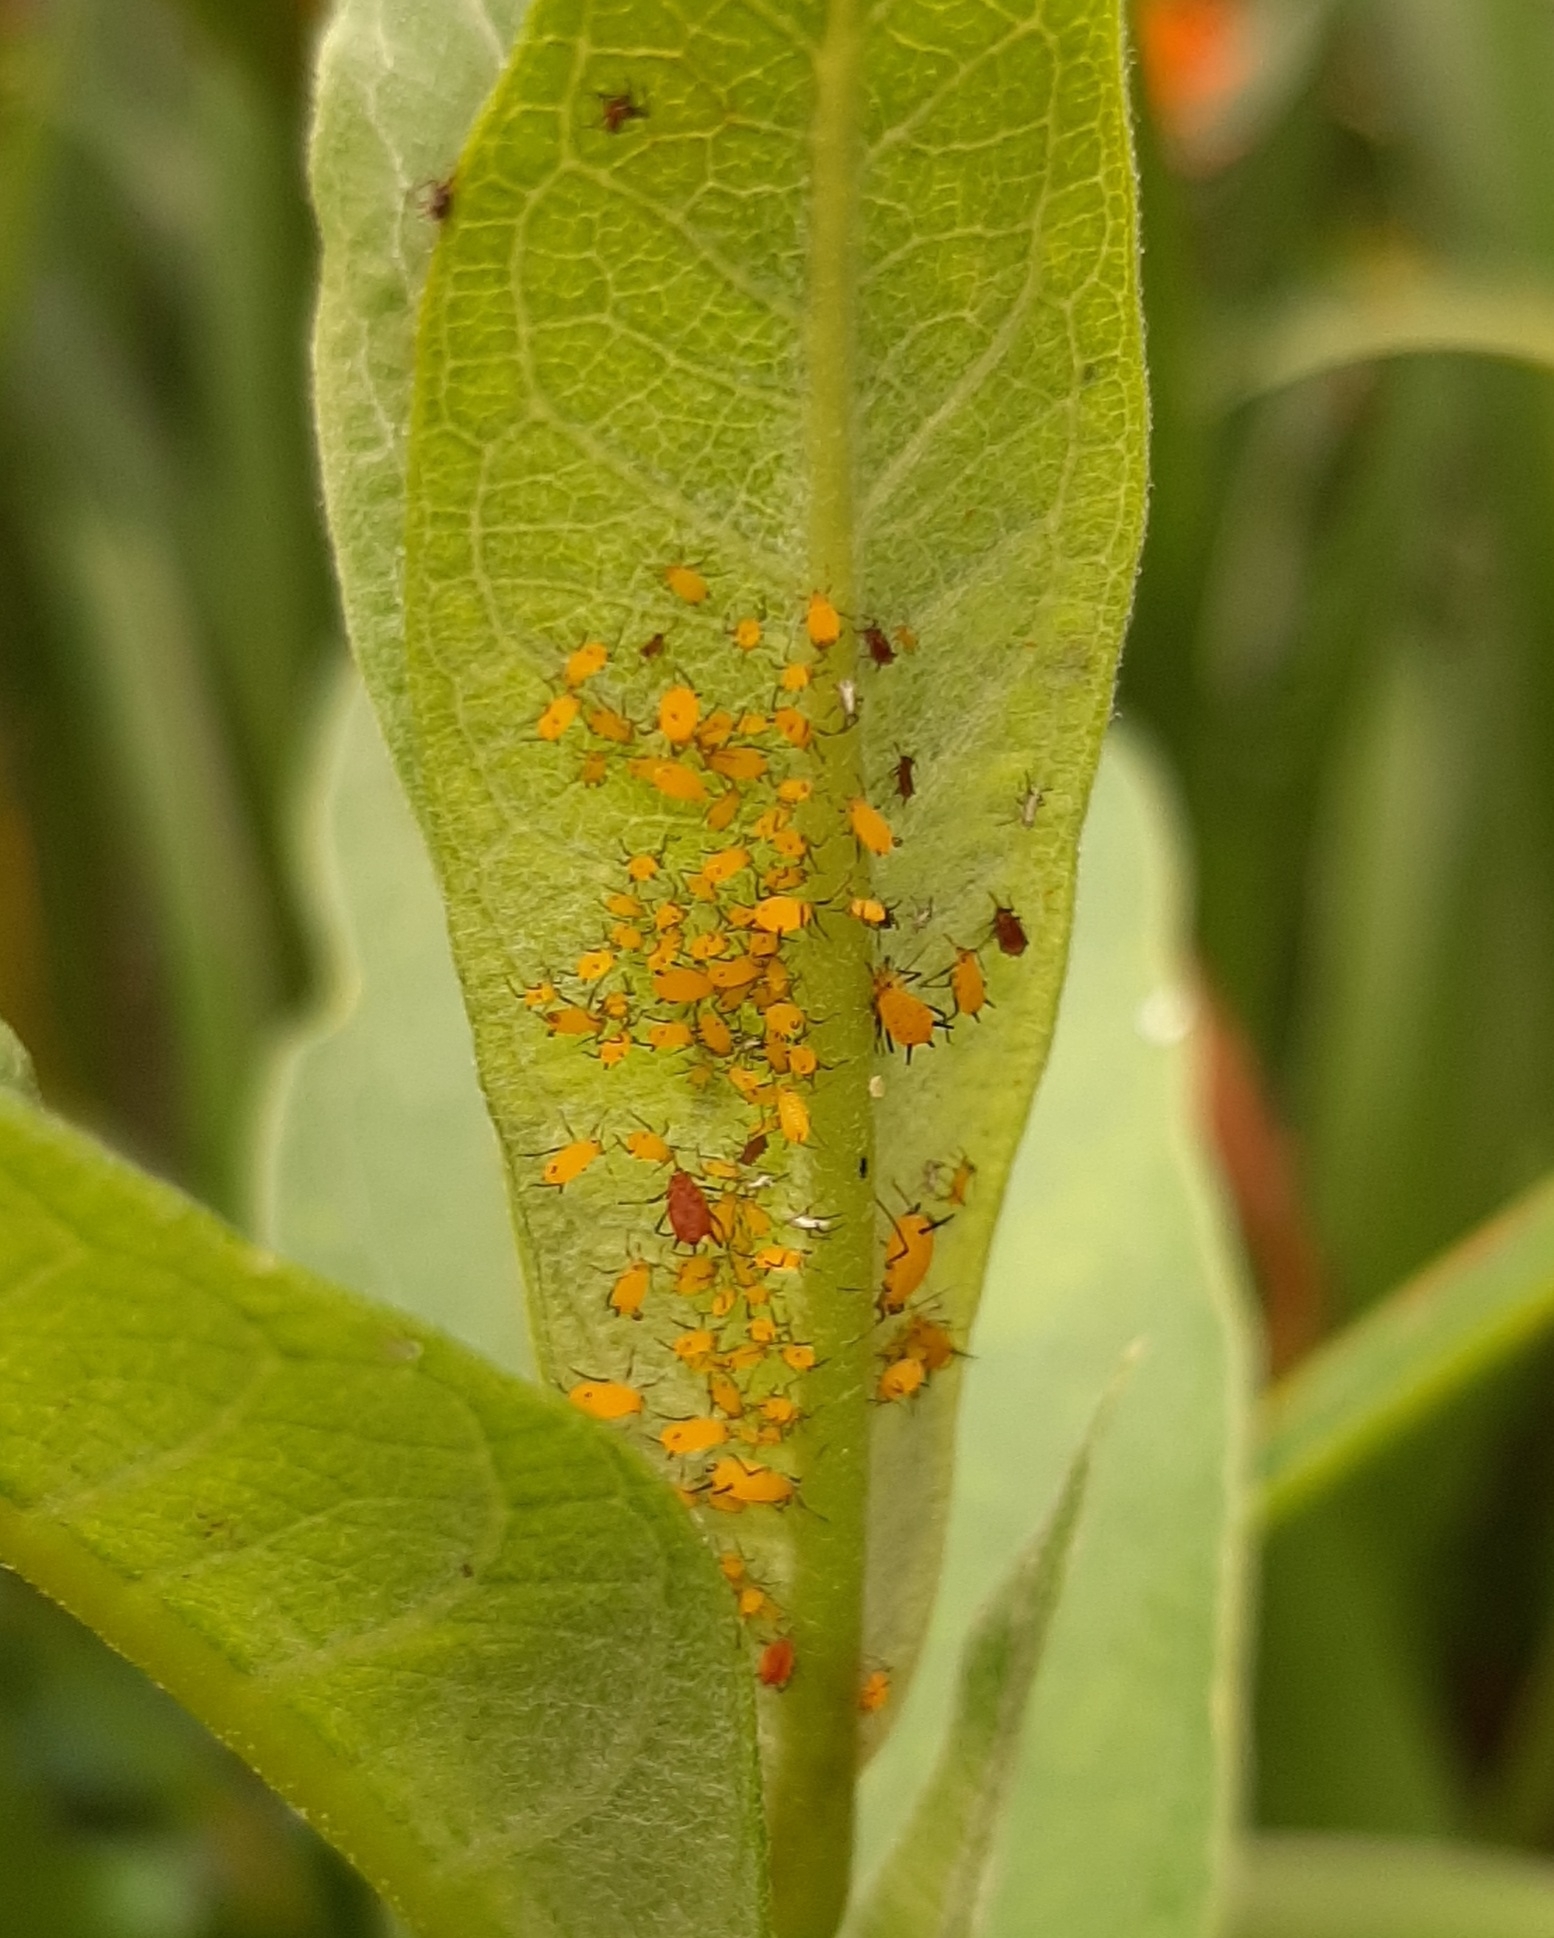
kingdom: Animalia
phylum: Arthropoda
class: Insecta
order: Hemiptera
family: Aphididae
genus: Aphis
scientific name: Aphis nerii
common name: Oleander aphid
